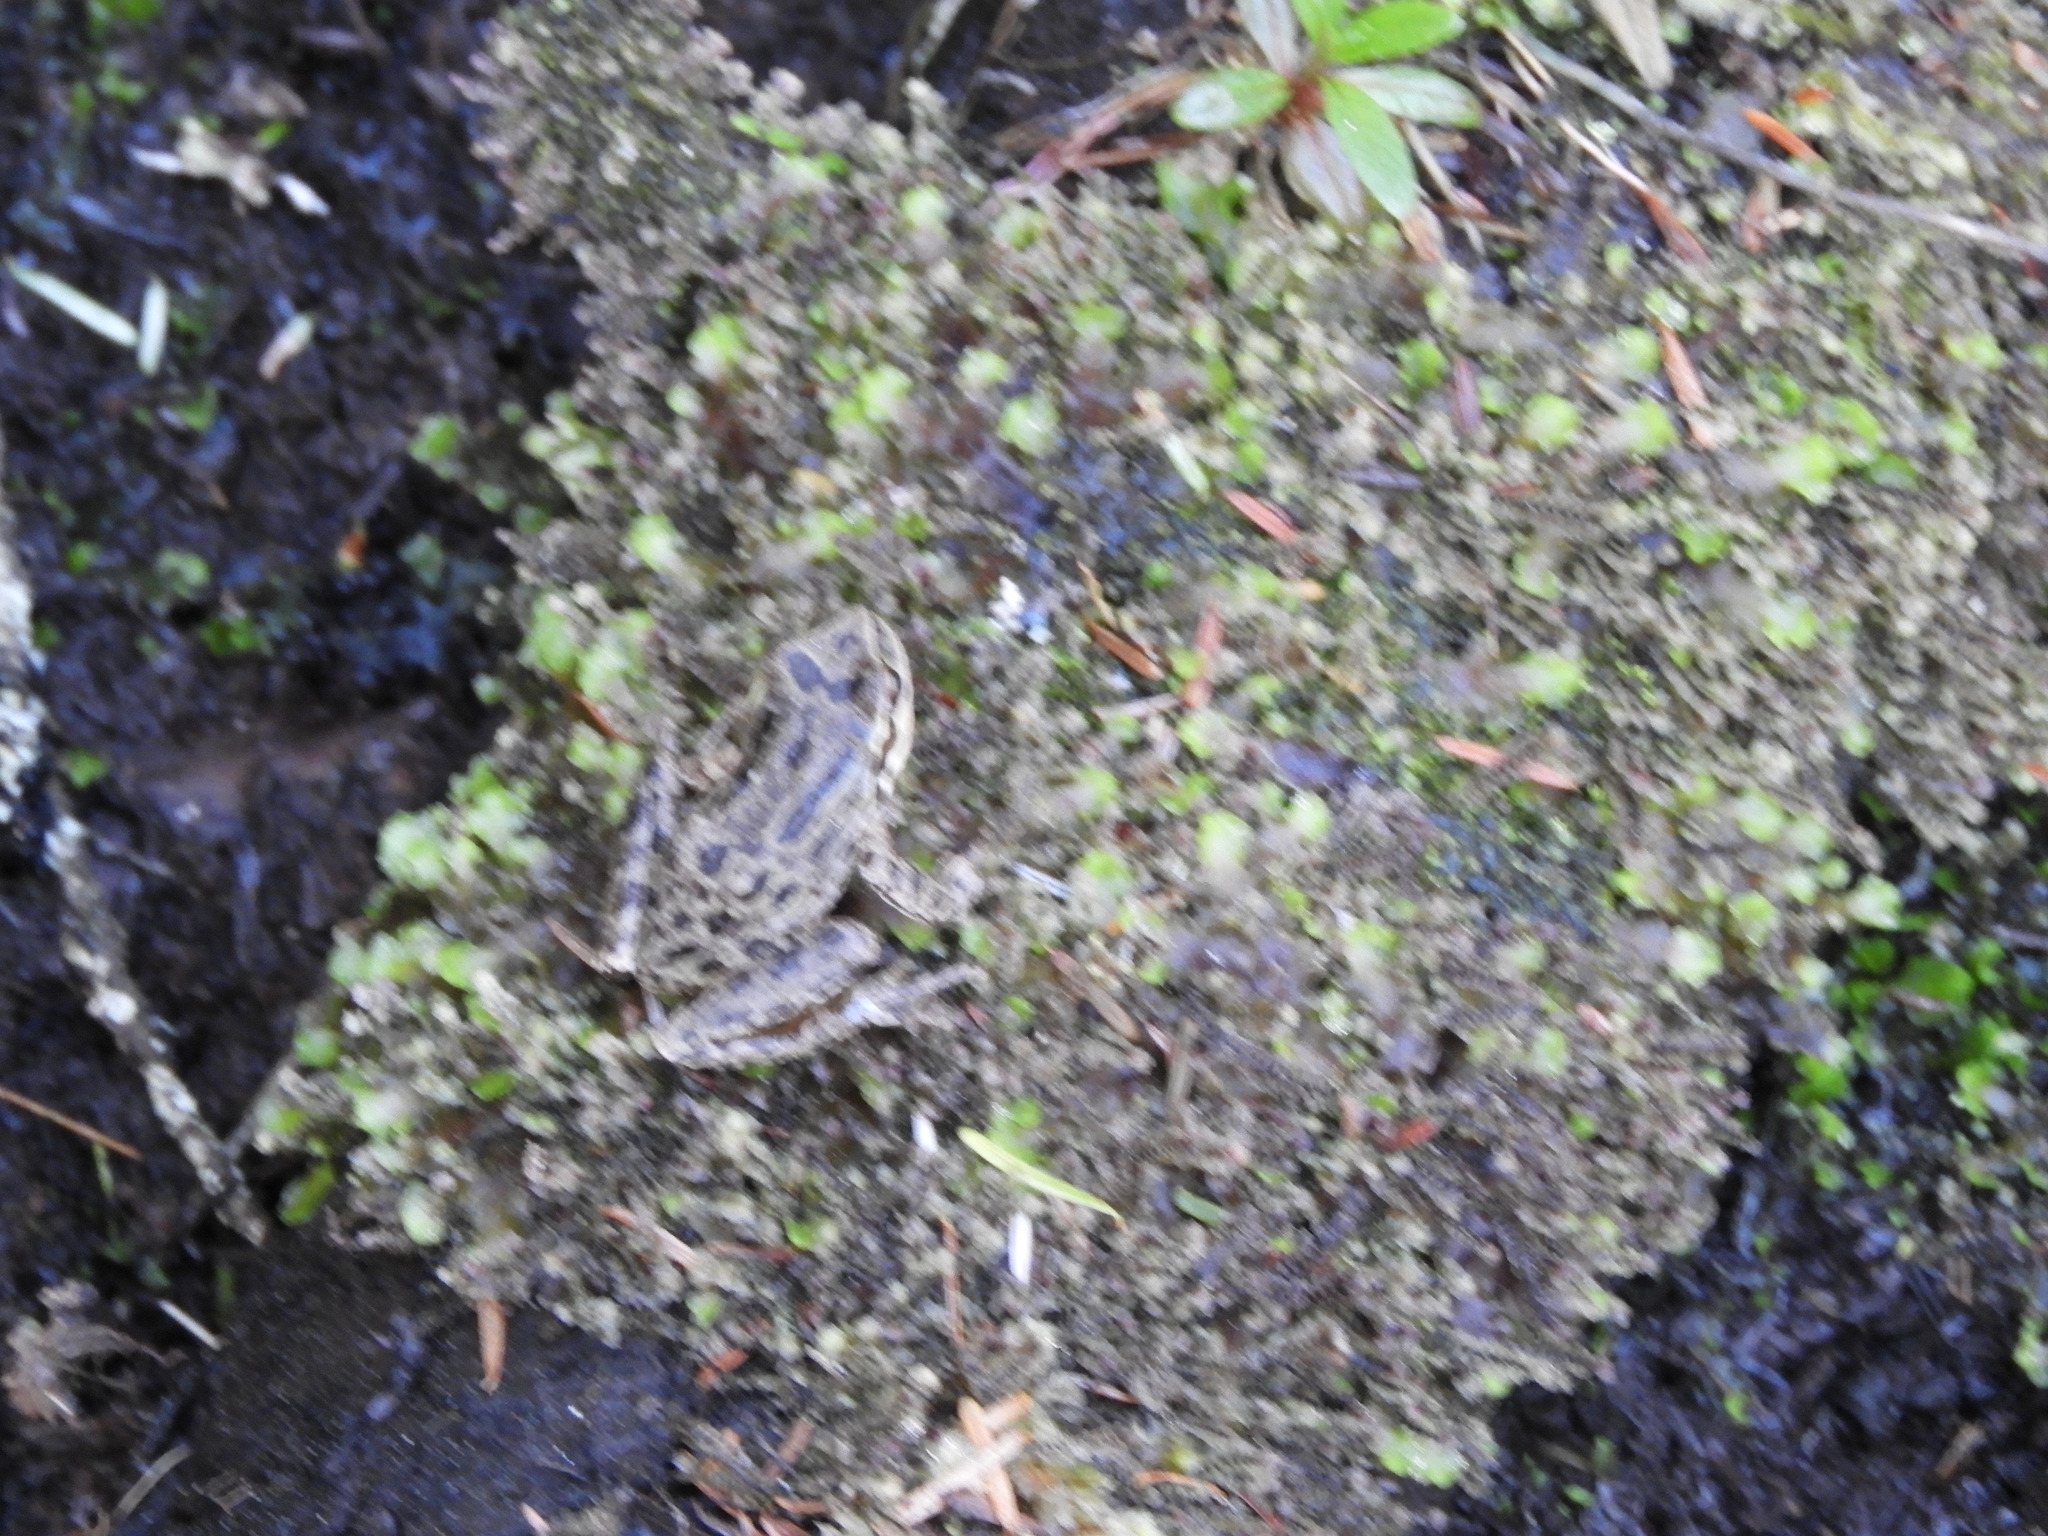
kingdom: Animalia
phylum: Chordata
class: Amphibia
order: Anura
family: Hylidae
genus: Pseudacris
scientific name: Pseudacris regilla
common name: Pacific chorus frog
